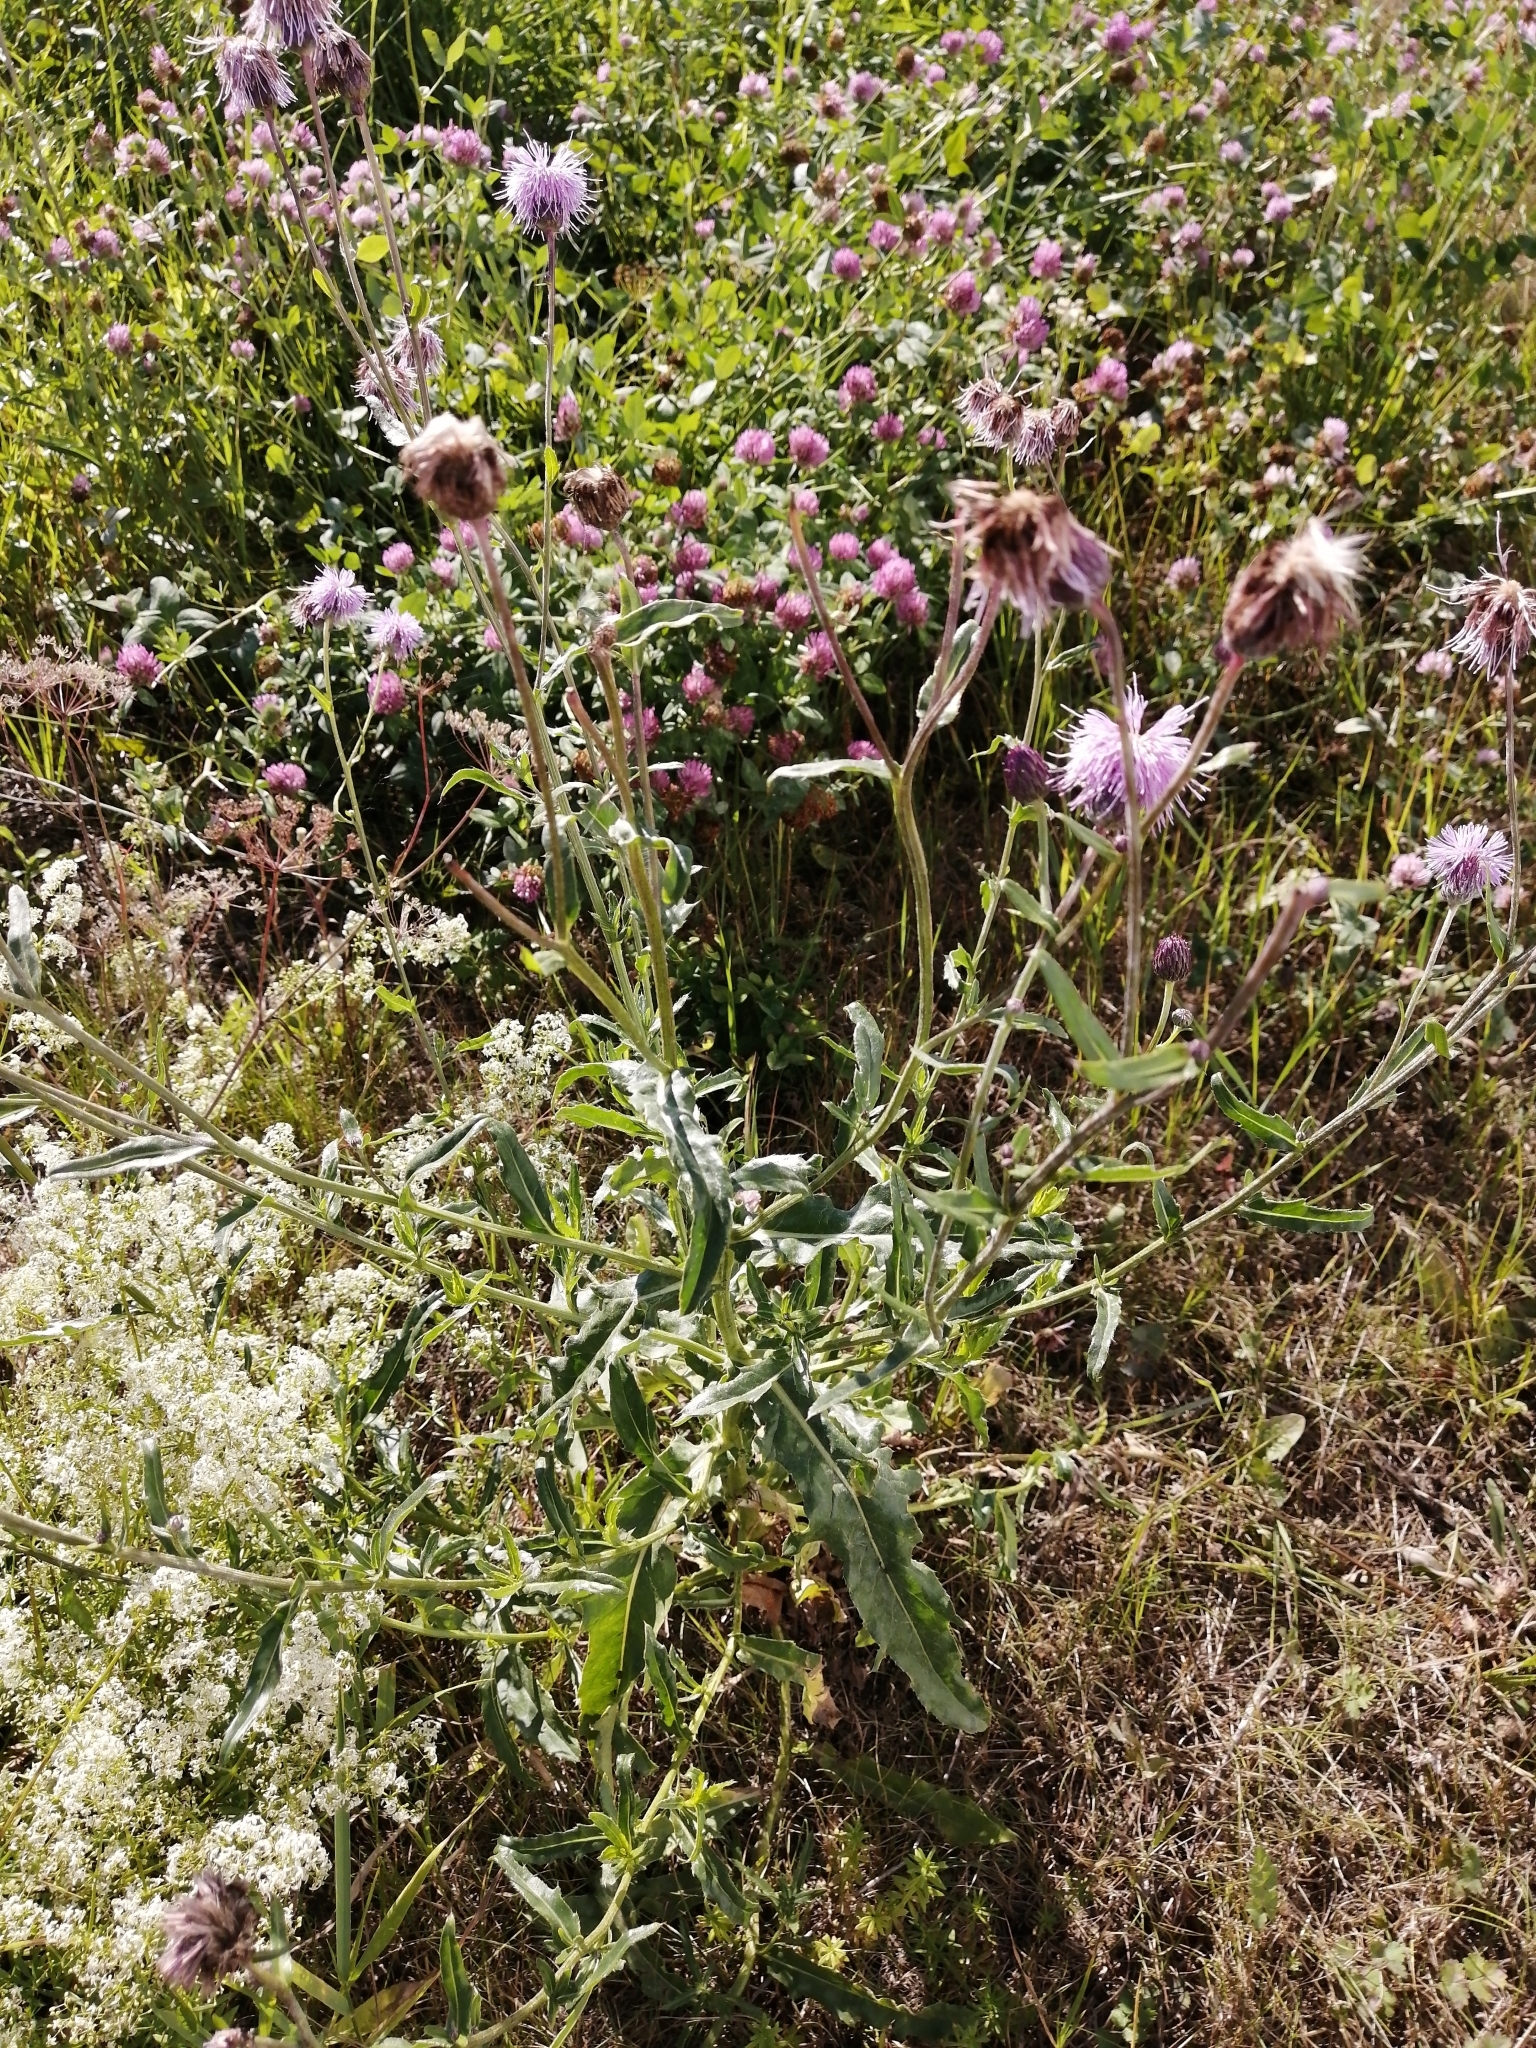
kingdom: Plantae
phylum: Tracheophyta
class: Magnoliopsida
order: Asterales
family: Asteraceae
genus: Cirsium
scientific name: Cirsium arvense
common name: Creeping thistle
